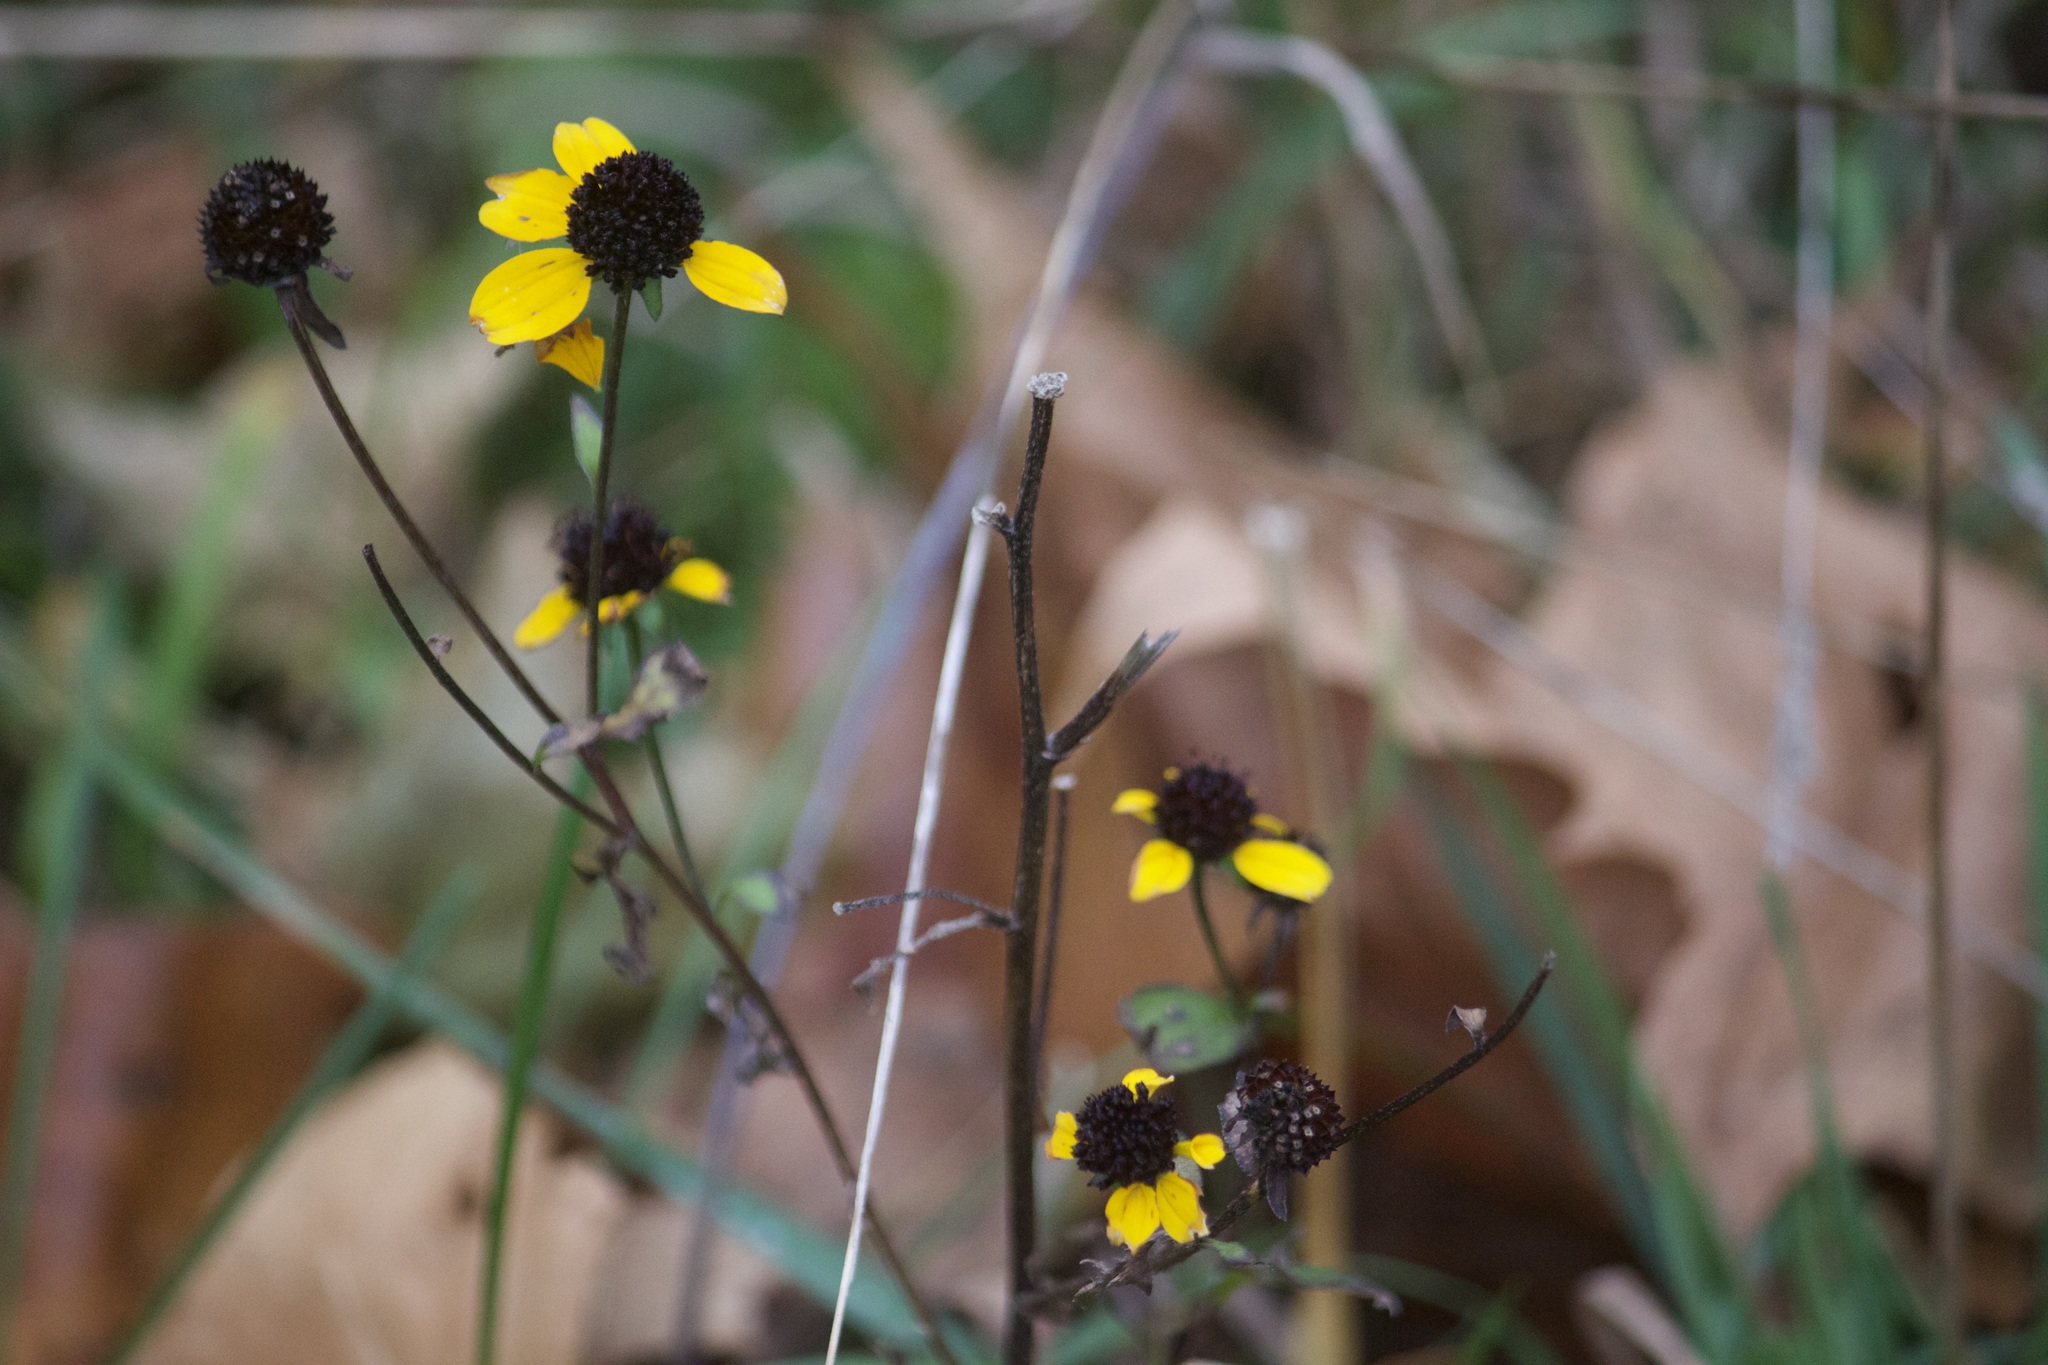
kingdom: Plantae
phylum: Tracheophyta
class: Magnoliopsida
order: Asterales
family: Asteraceae
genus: Rudbeckia
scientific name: Rudbeckia triloba
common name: Thin-leaved coneflower
